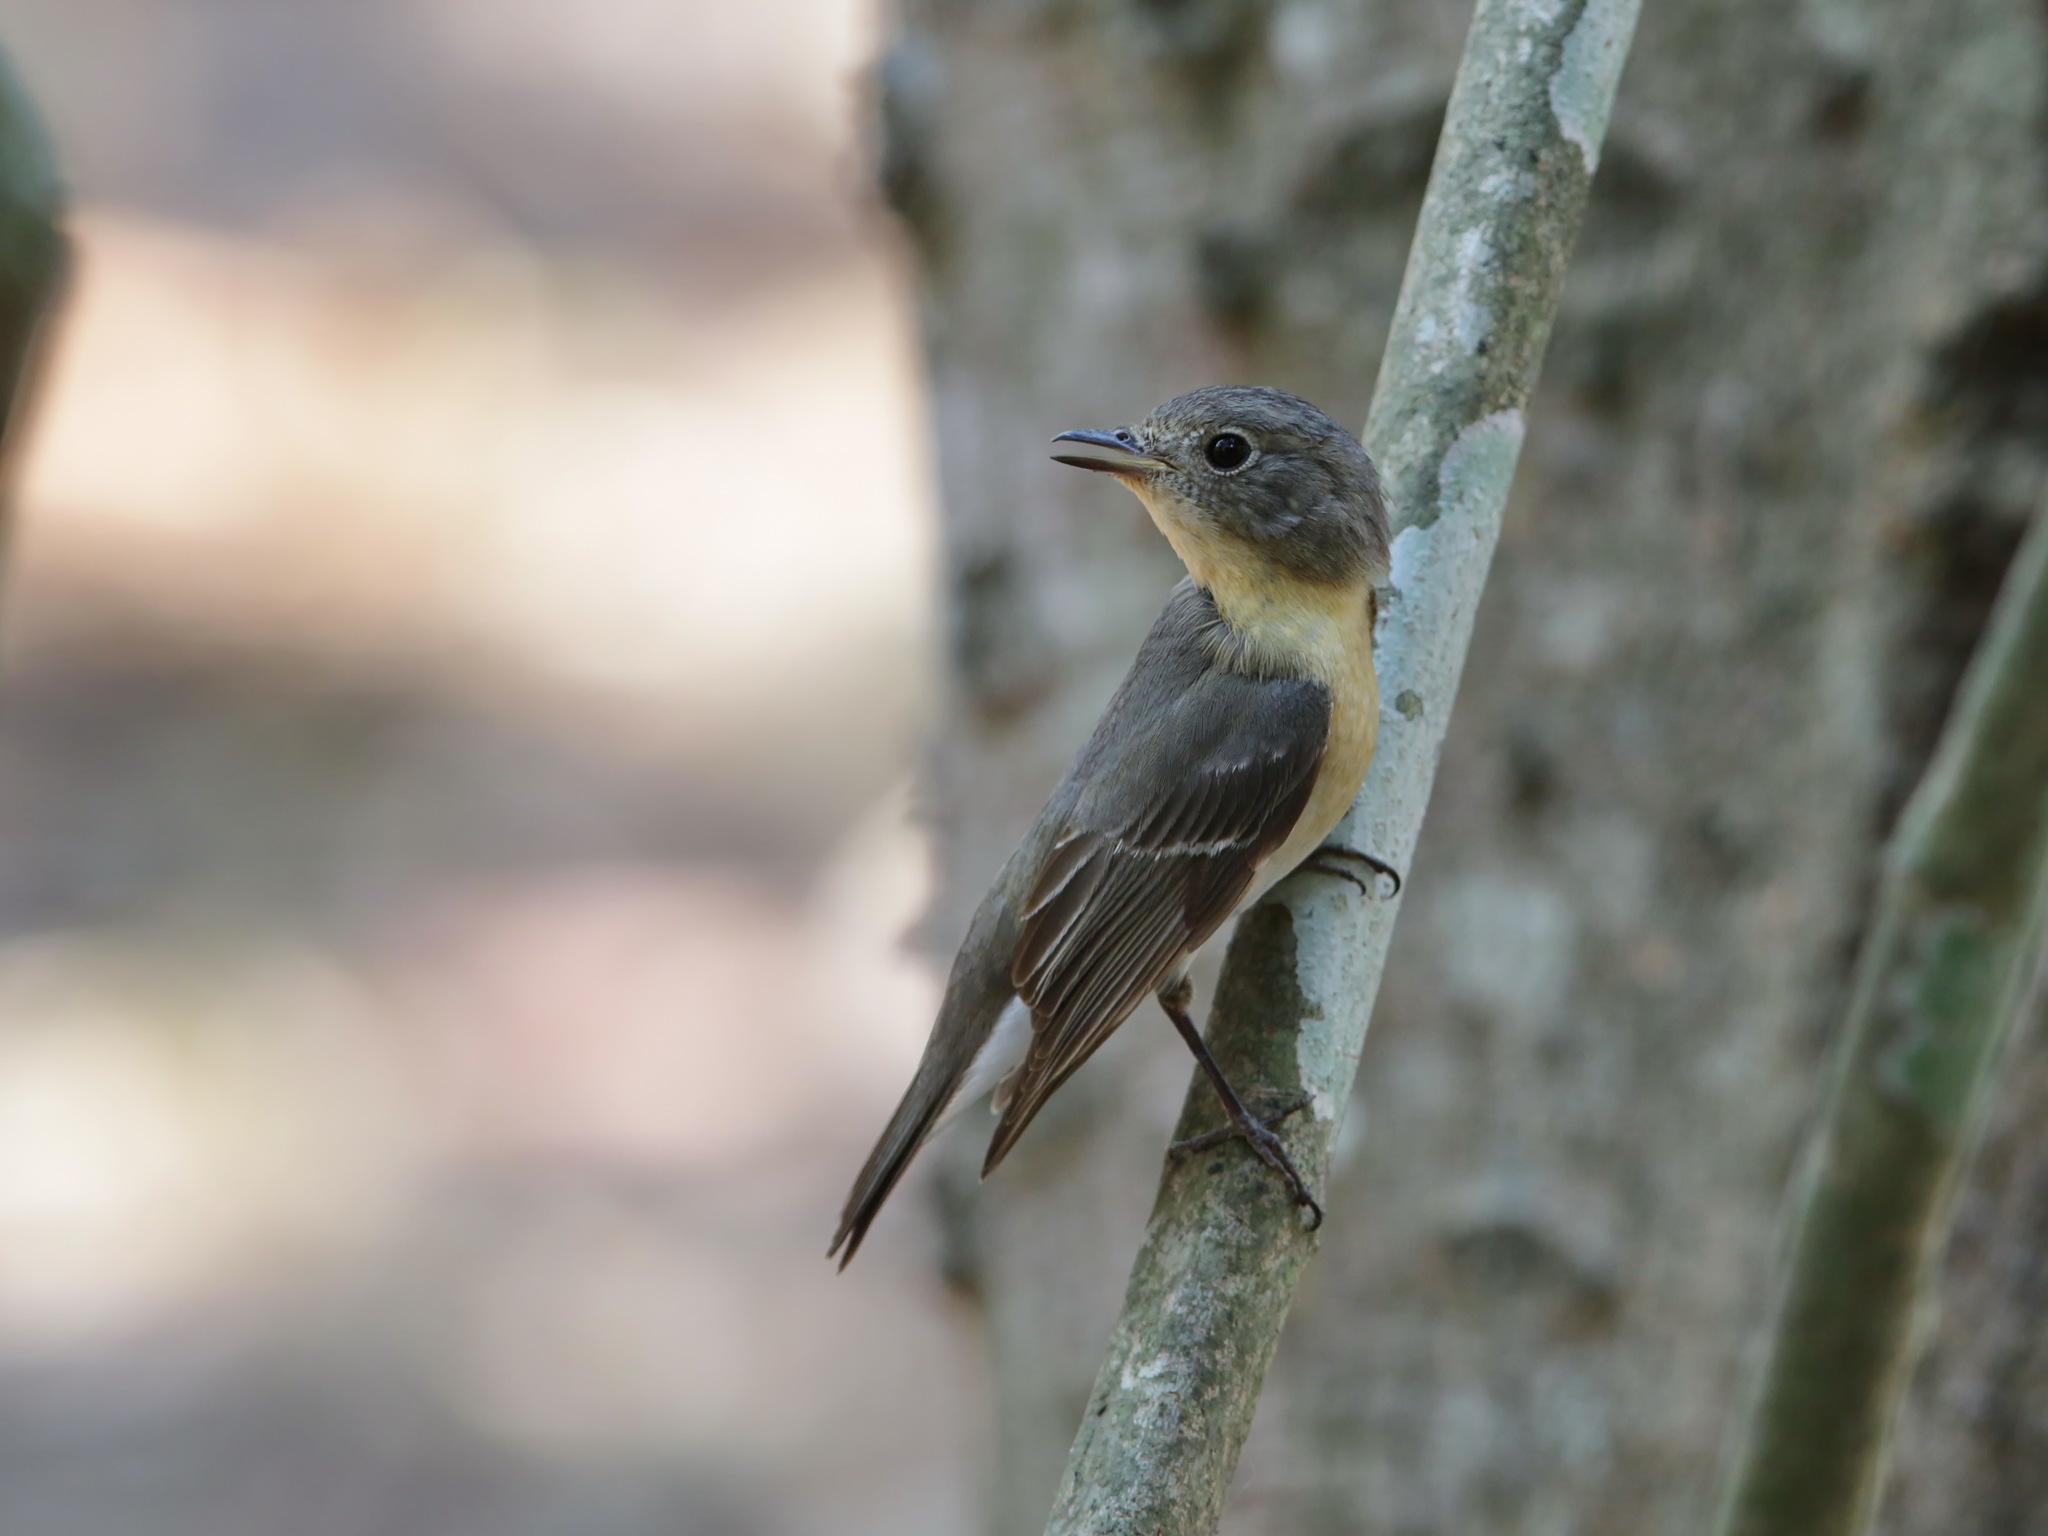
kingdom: Animalia
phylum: Chordata
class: Aves
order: Passeriformes
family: Muscicapidae
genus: Ficedula
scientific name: Ficedula mugimaki
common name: Mugimaki flycatcher
